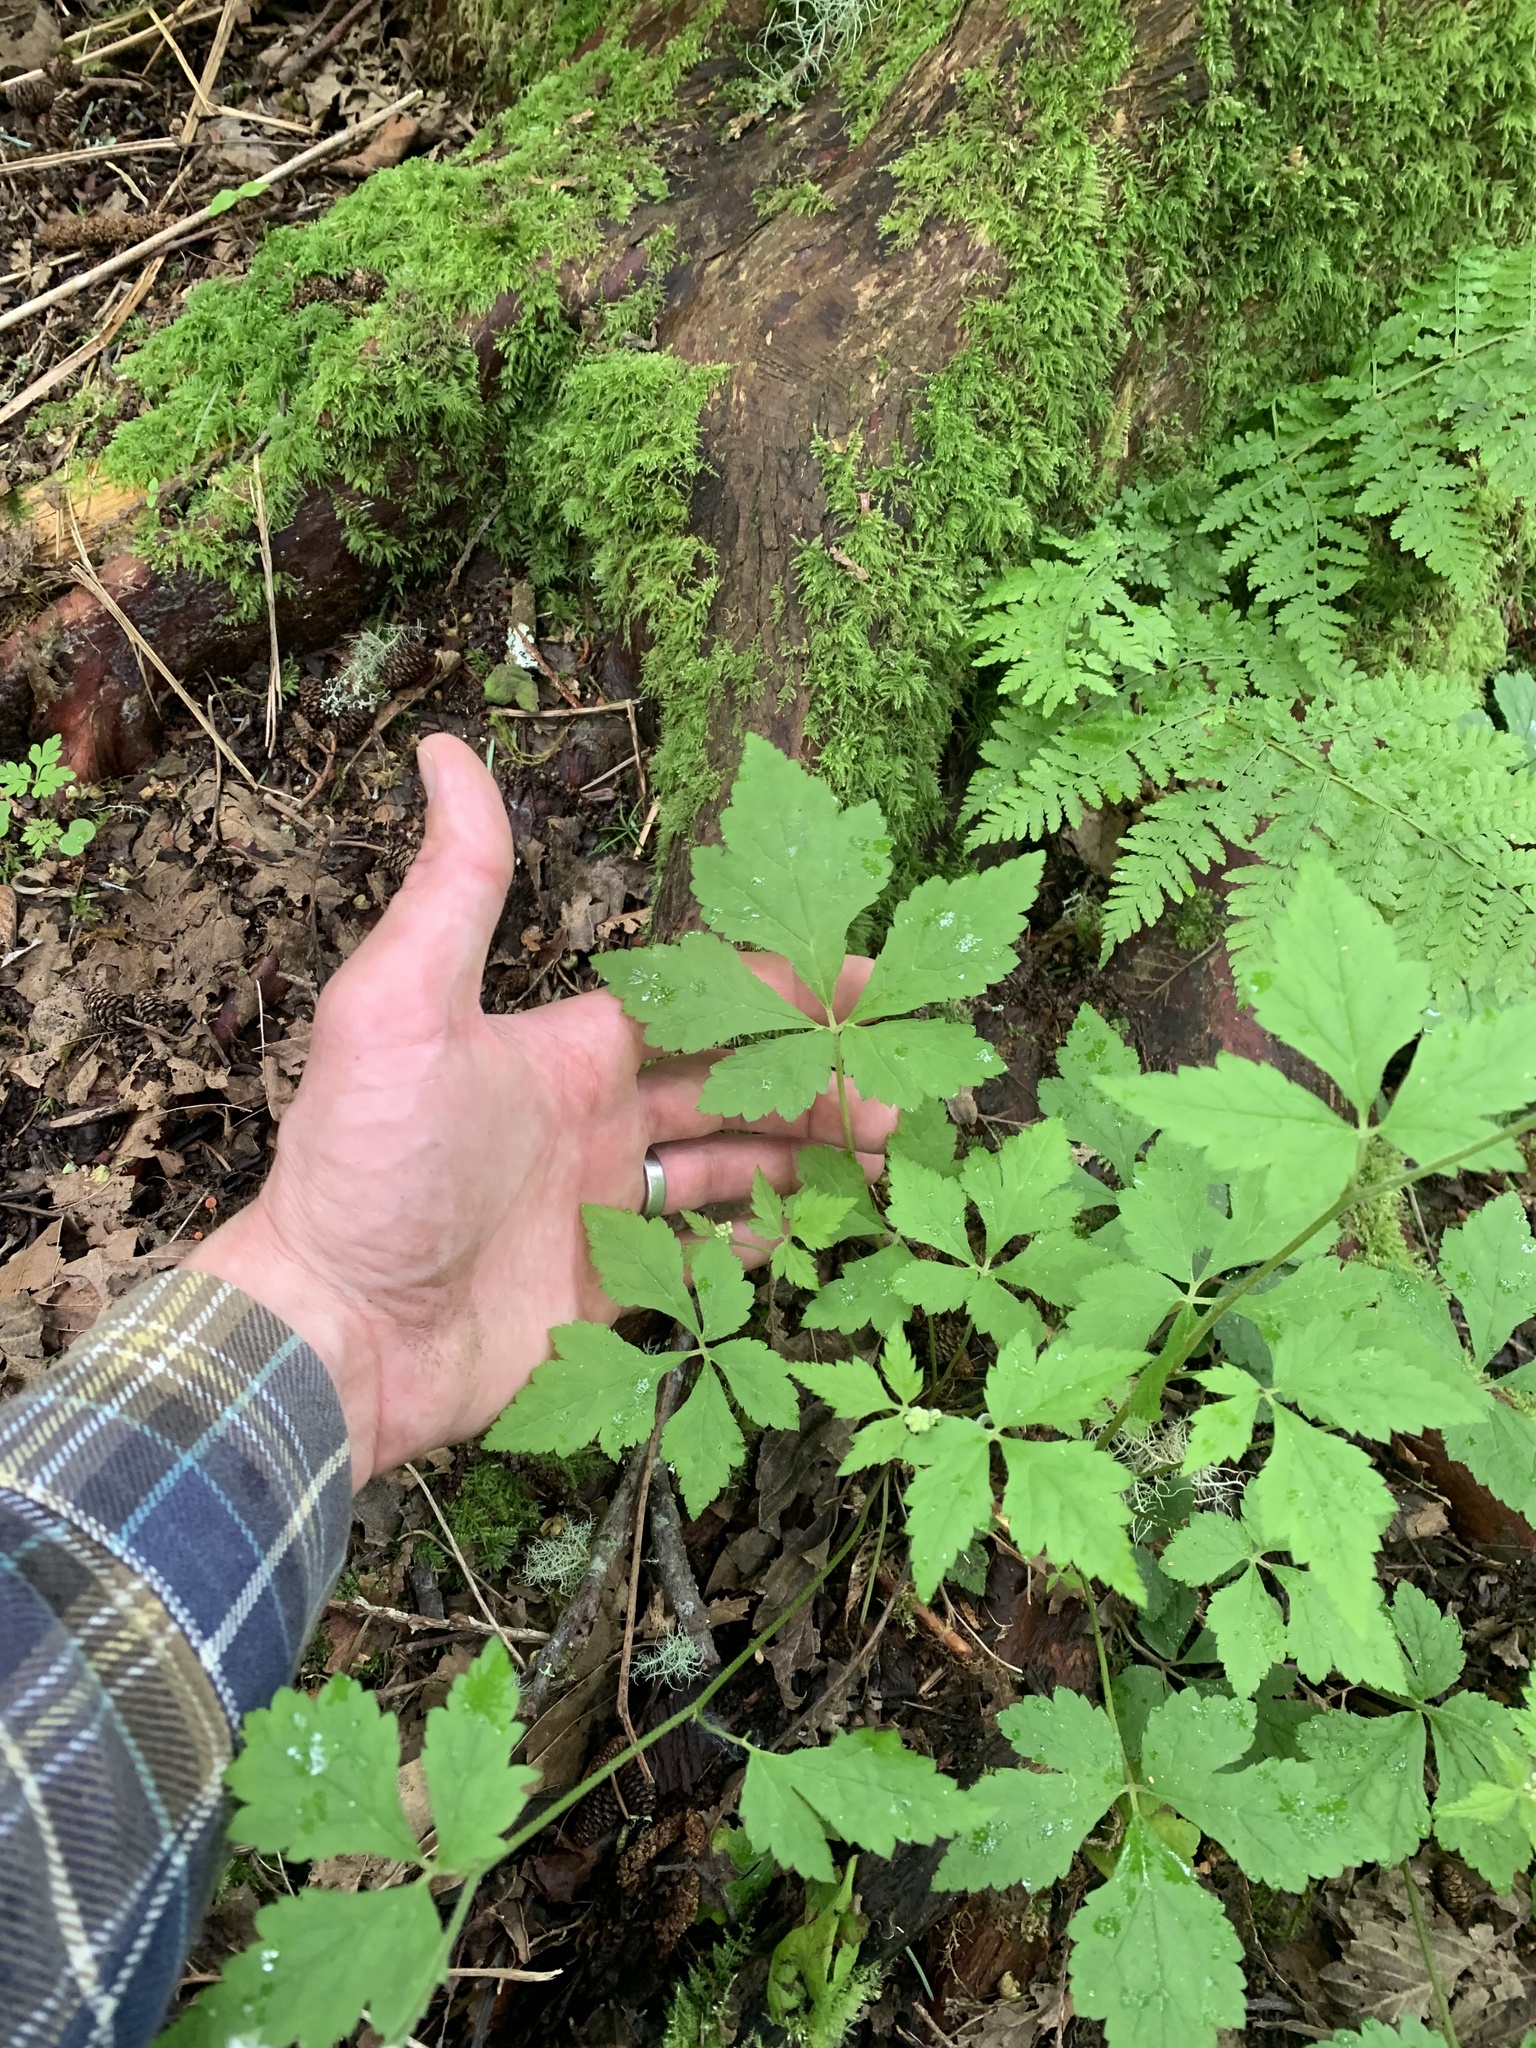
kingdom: Plantae
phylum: Tracheophyta
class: Magnoliopsida
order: Saxifragales
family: Saxifragaceae
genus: Tiarella
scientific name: Tiarella trifoliata
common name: Sugar-scoop
